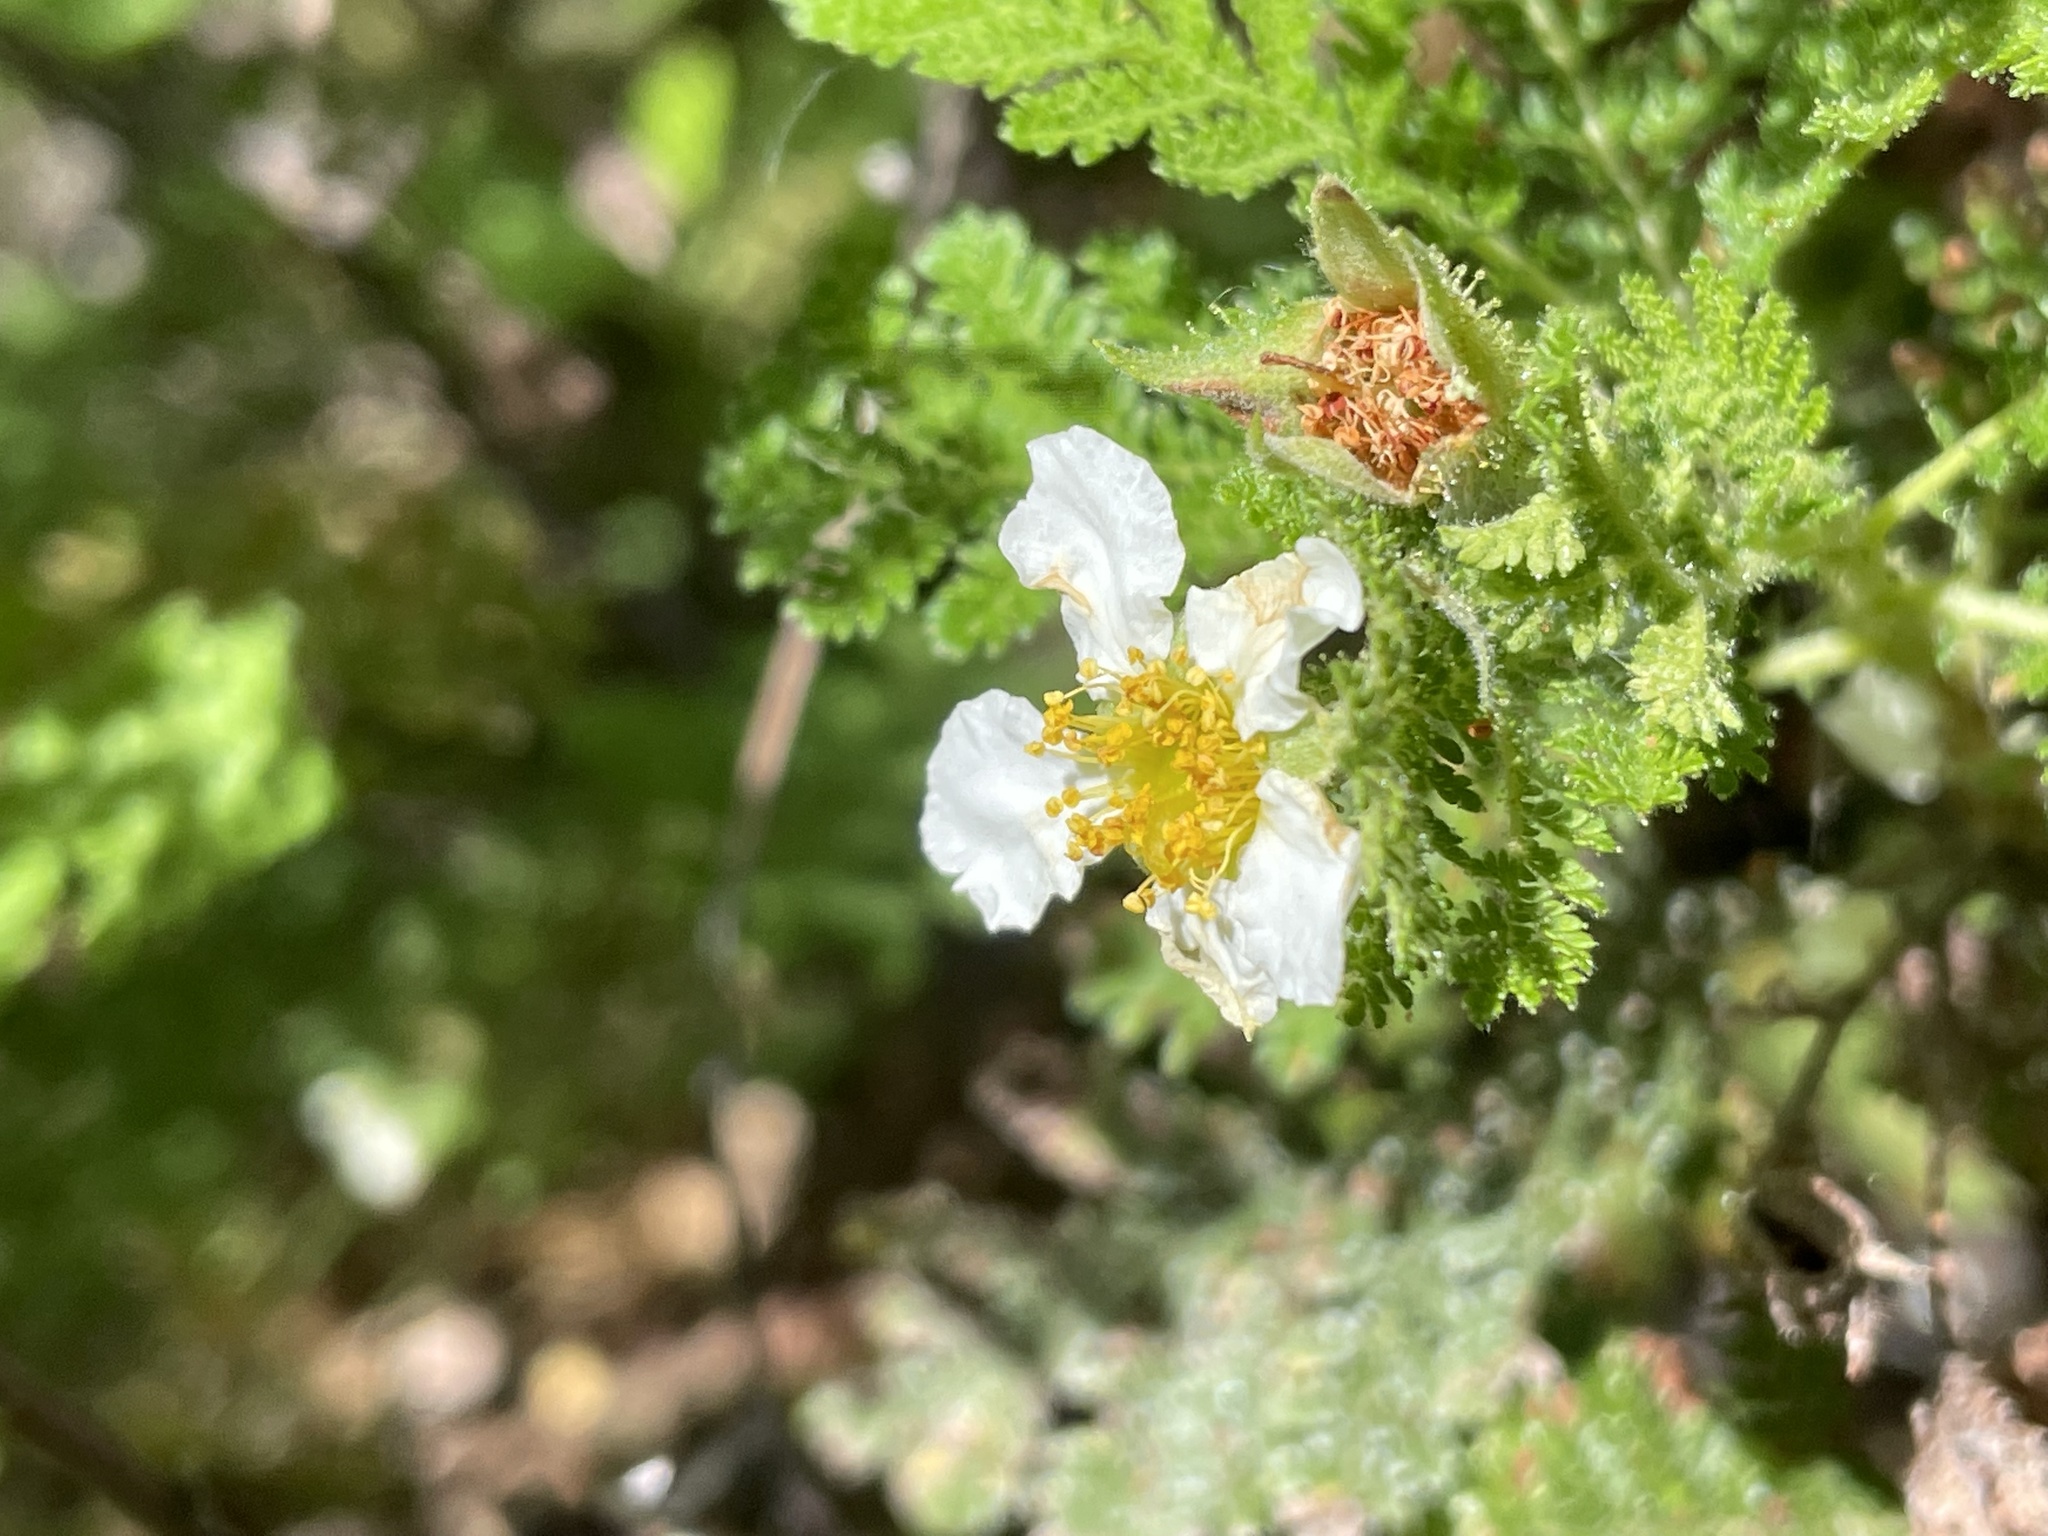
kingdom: Plantae
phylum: Tracheophyta
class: Magnoliopsida
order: Rosales
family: Rosaceae
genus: Chamaebatia
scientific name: Chamaebatia foliolosa
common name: Mountain misery
